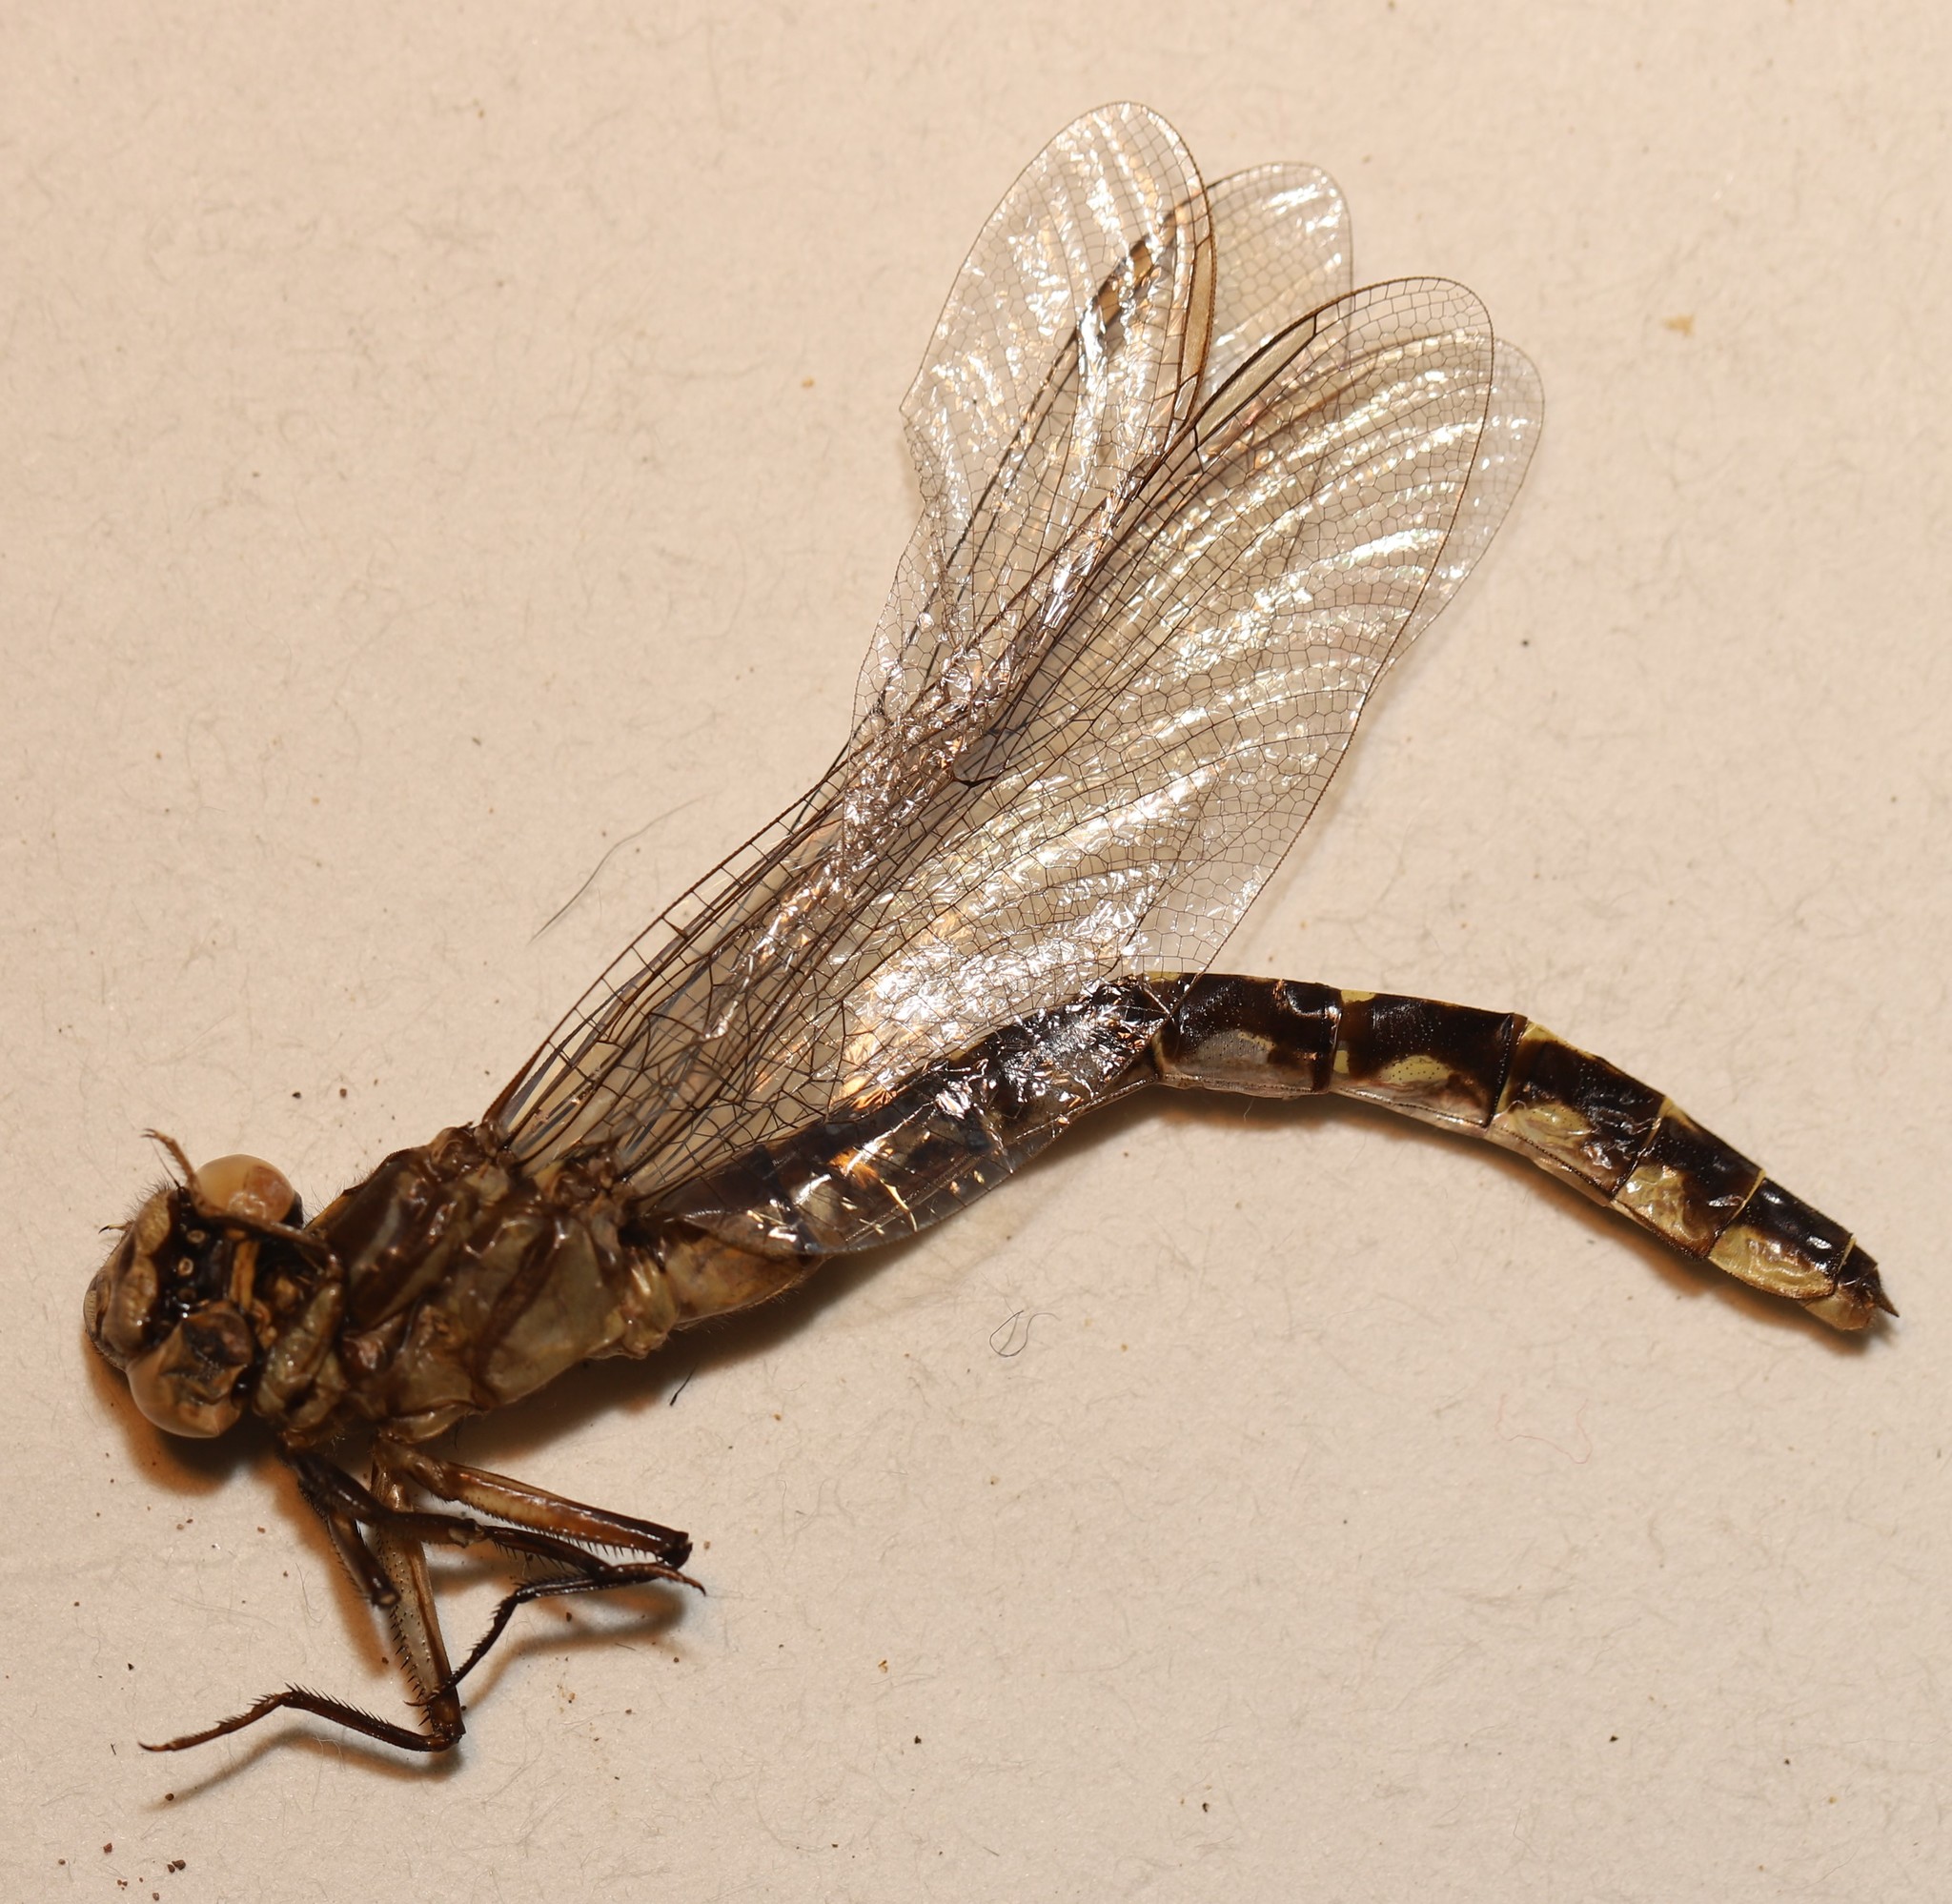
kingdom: Animalia
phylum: Arthropoda
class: Insecta
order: Odonata
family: Gomphidae
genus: Stylurus
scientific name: Stylurus notatus
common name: Elusive clubtail
